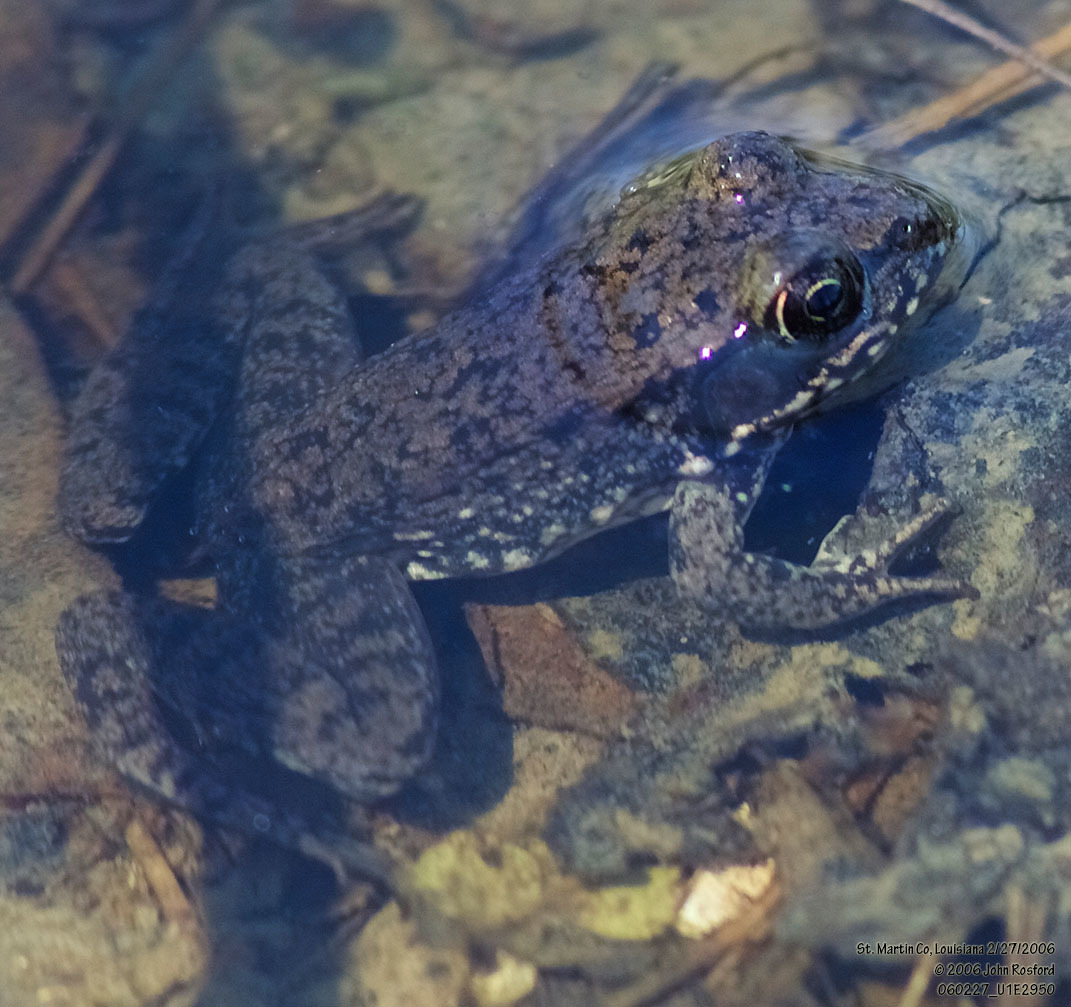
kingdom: Animalia
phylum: Chordata
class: Amphibia
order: Anura
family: Ranidae
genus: Lithobates
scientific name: Lithobates clamitans
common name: Green frog
